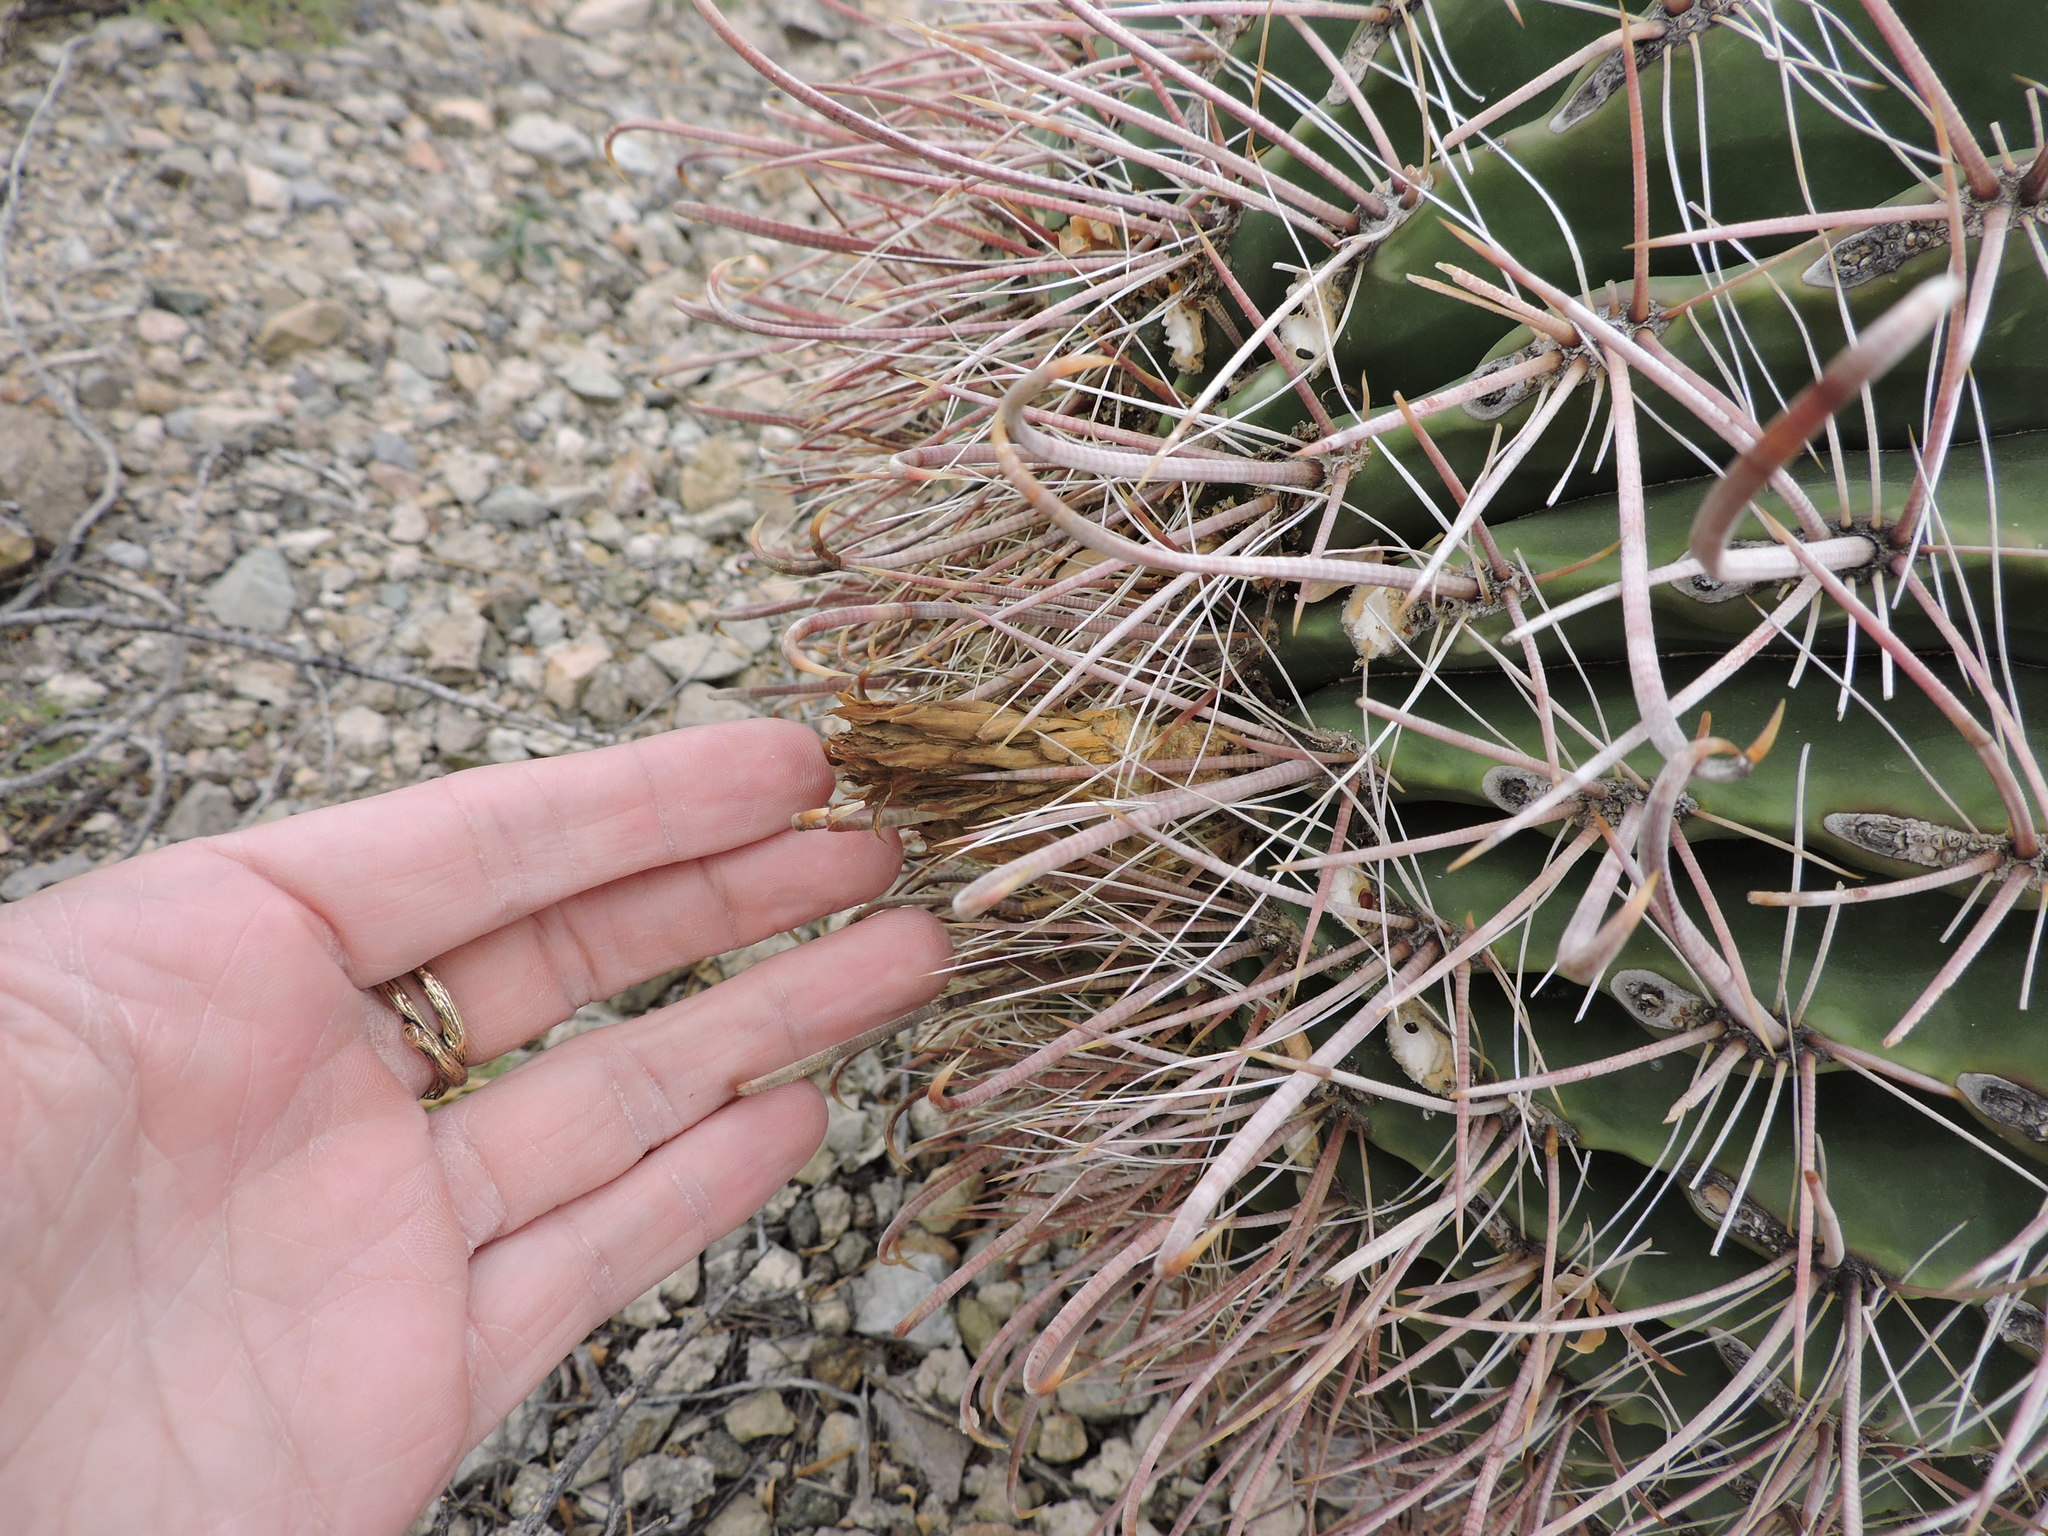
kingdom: Plantae
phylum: Tracheophyta
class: Magnoliopsida
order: Caryophyllales
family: Cactaceae
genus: Ferocactus
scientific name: Ferocactus wislizeni
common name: Candy barrel cactus
